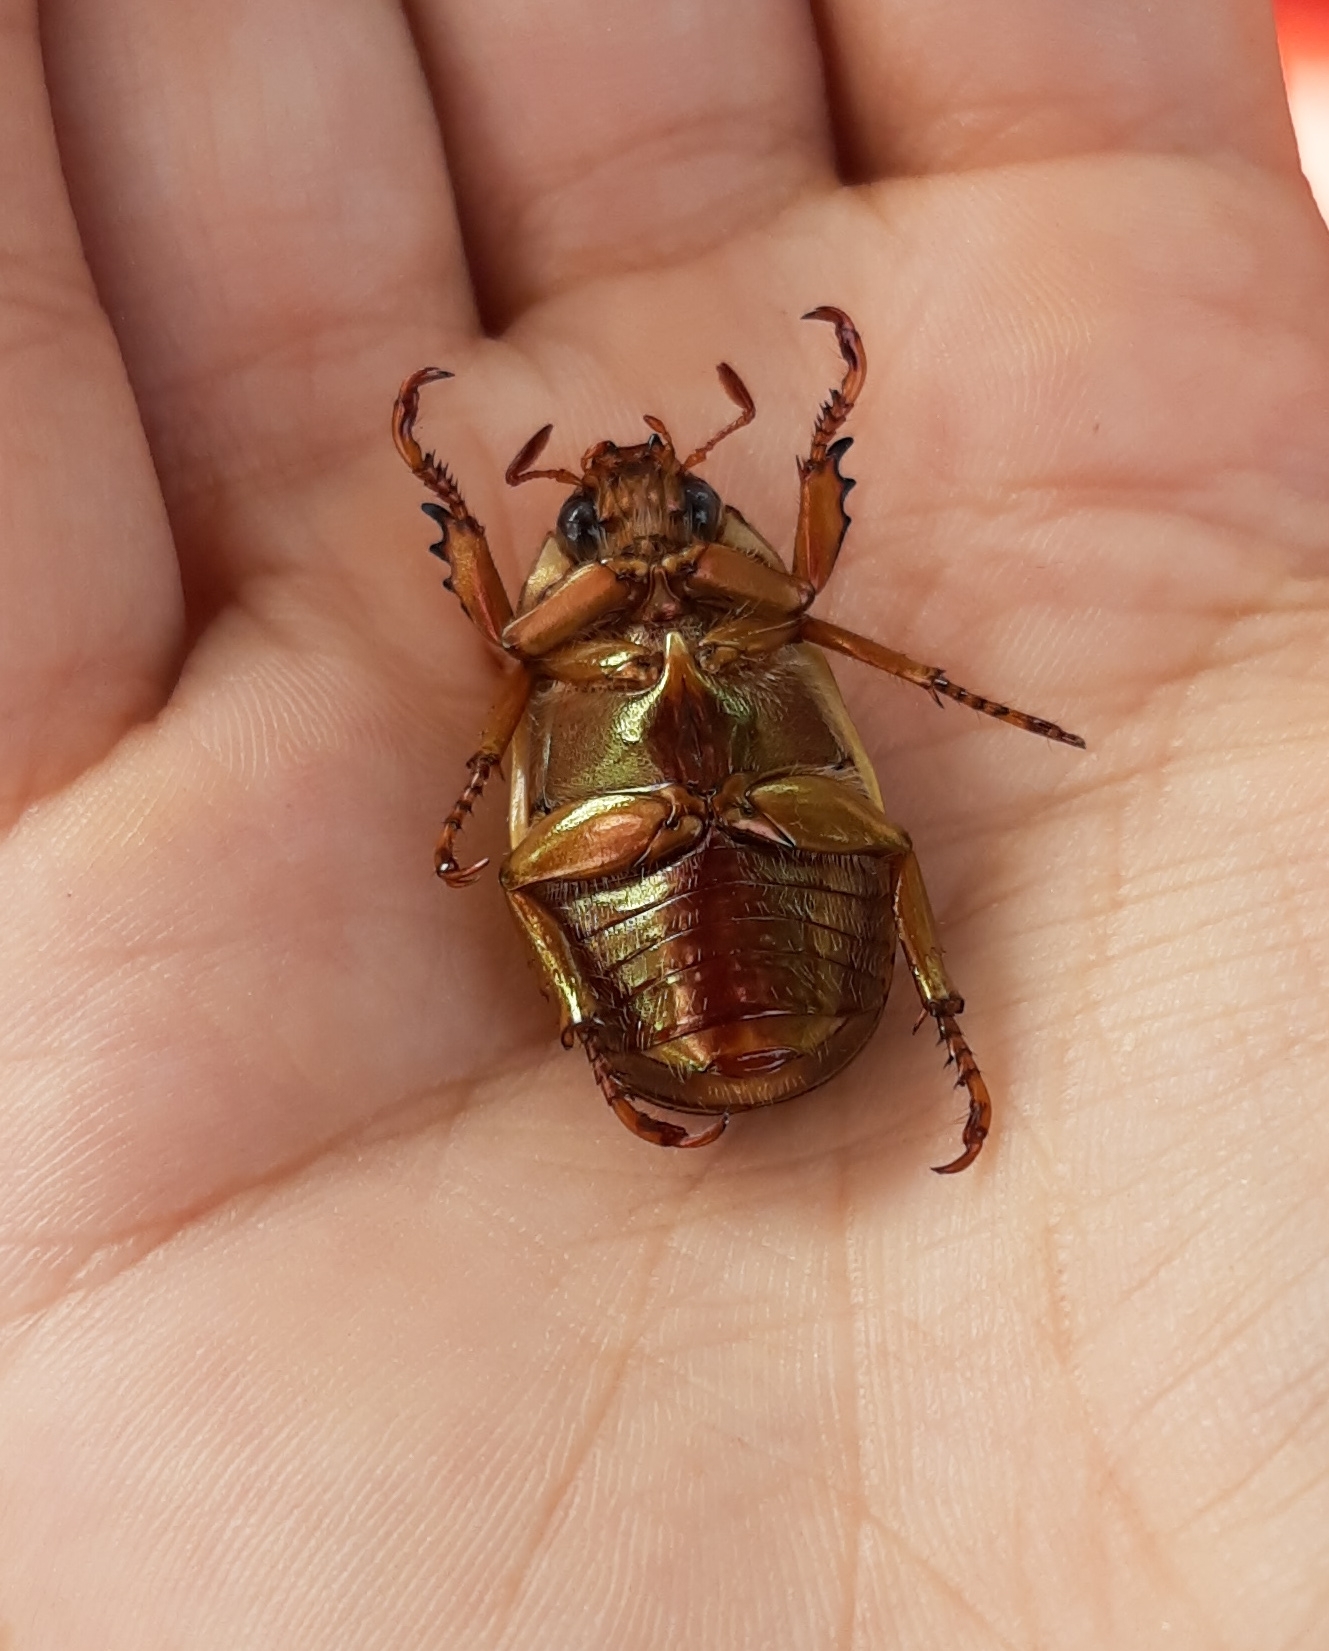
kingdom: Animalia
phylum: Arthropoda
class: Insecta
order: Coleoptera
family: Scarabaeidae
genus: Pelidnota
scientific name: Pelidnota semiaurata
